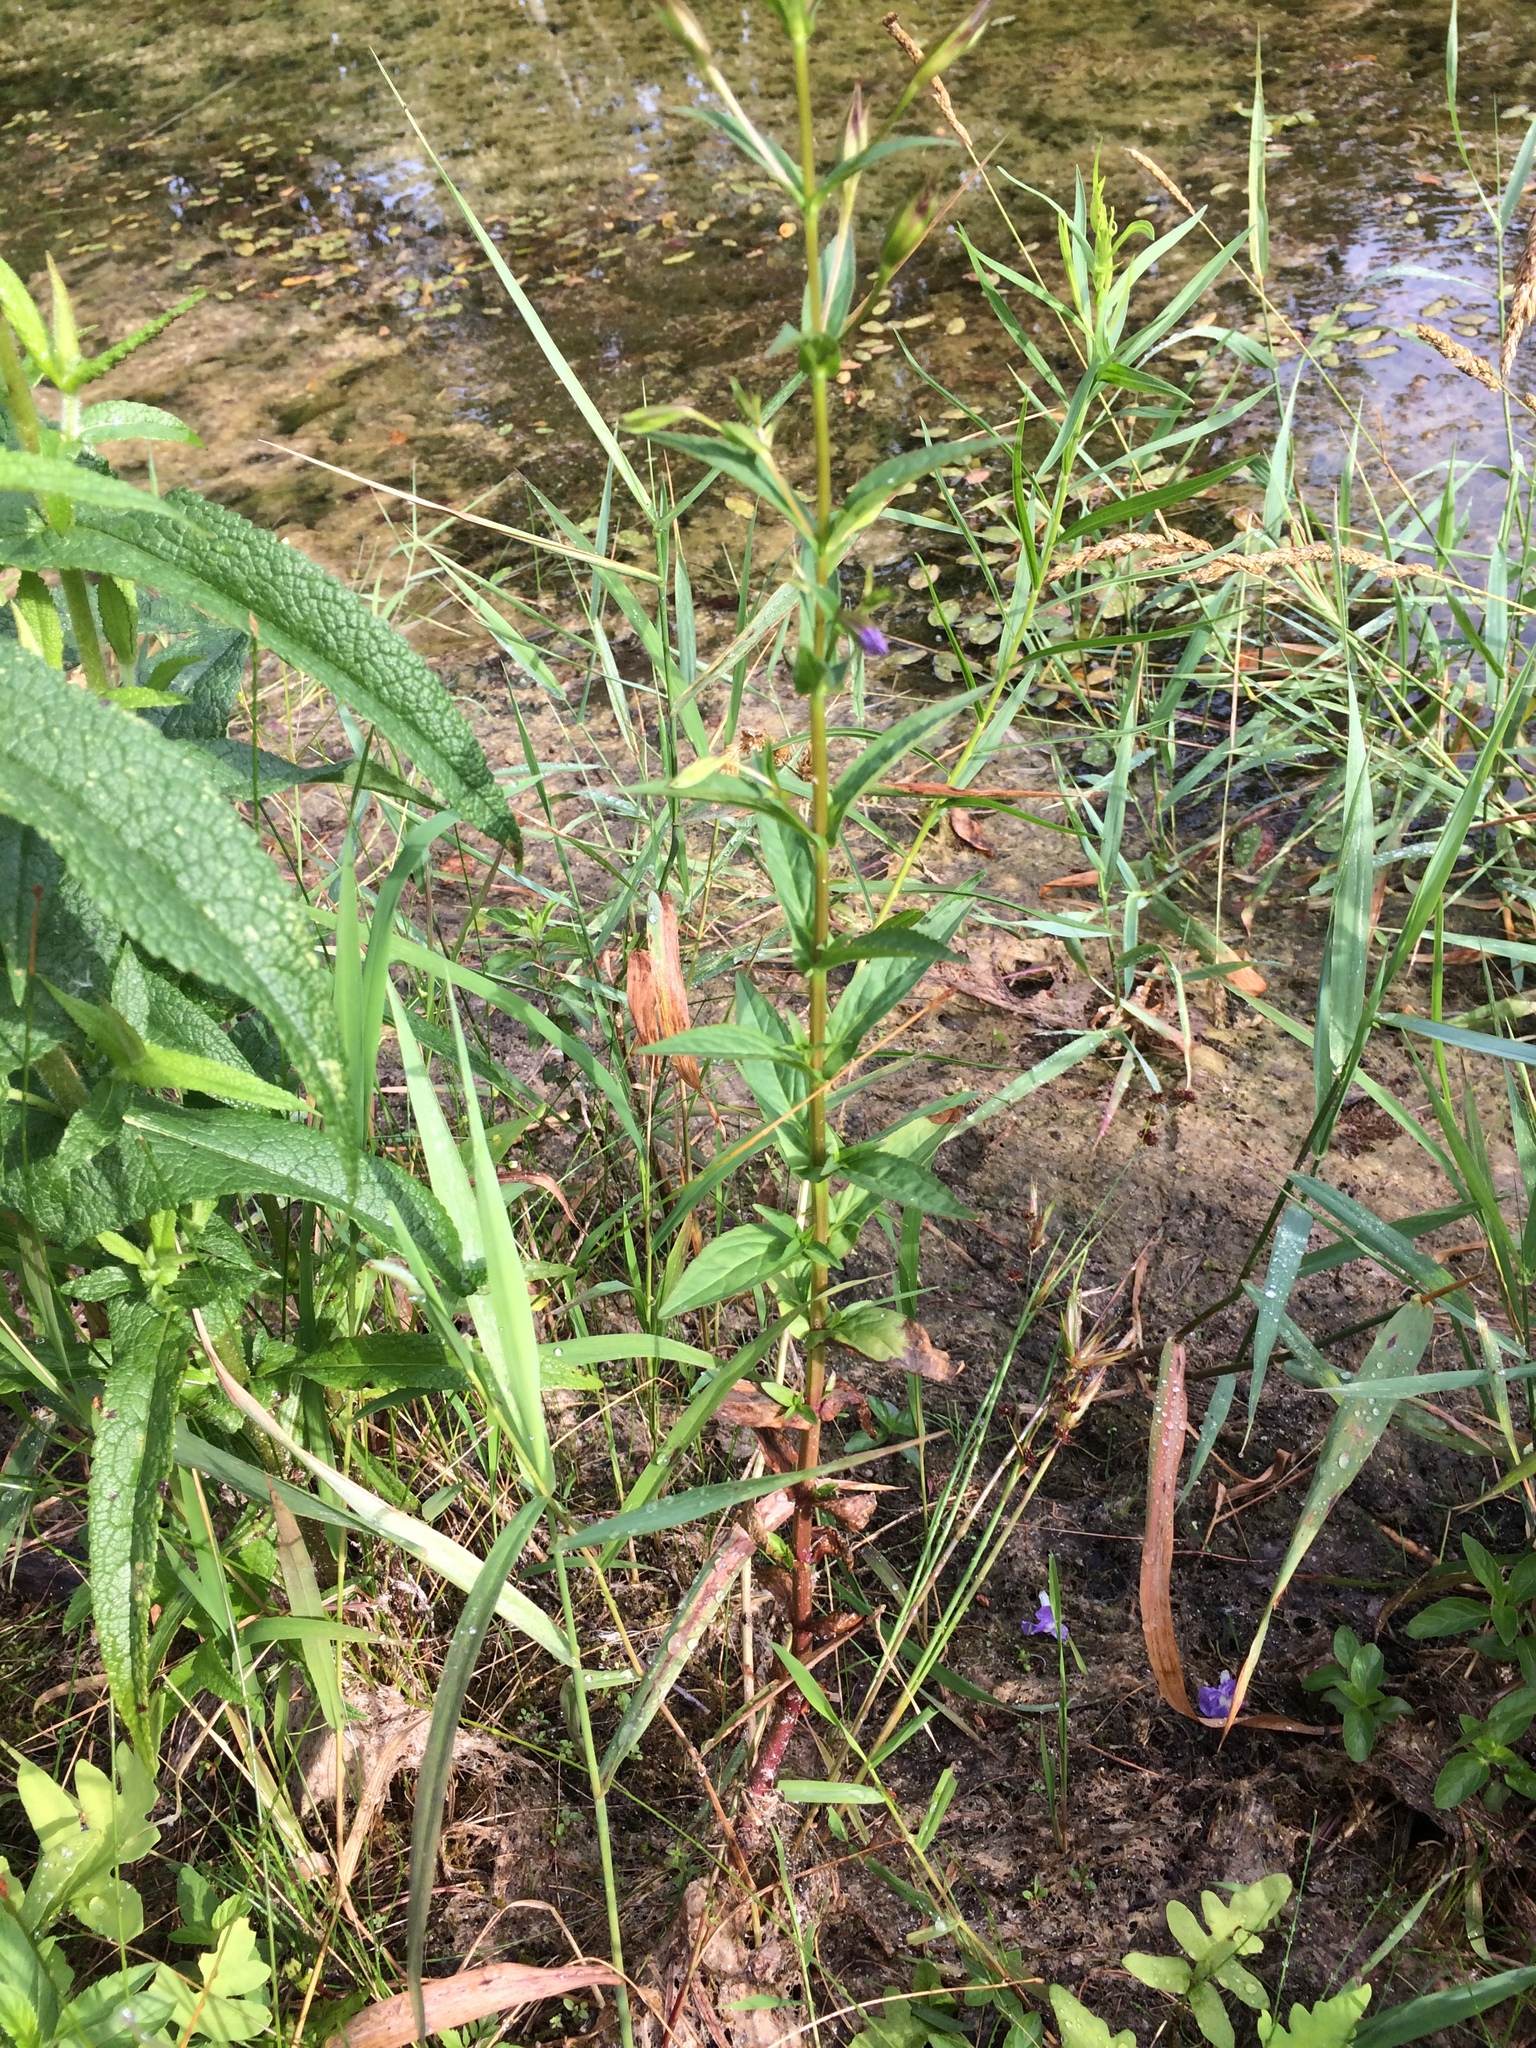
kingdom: Plantae
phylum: Tracheophyta
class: Magnoliopsida
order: Lamiales
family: Phrymaceae
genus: Mimulus
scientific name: Mimulus ringens
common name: Allegheny monkeyflower
